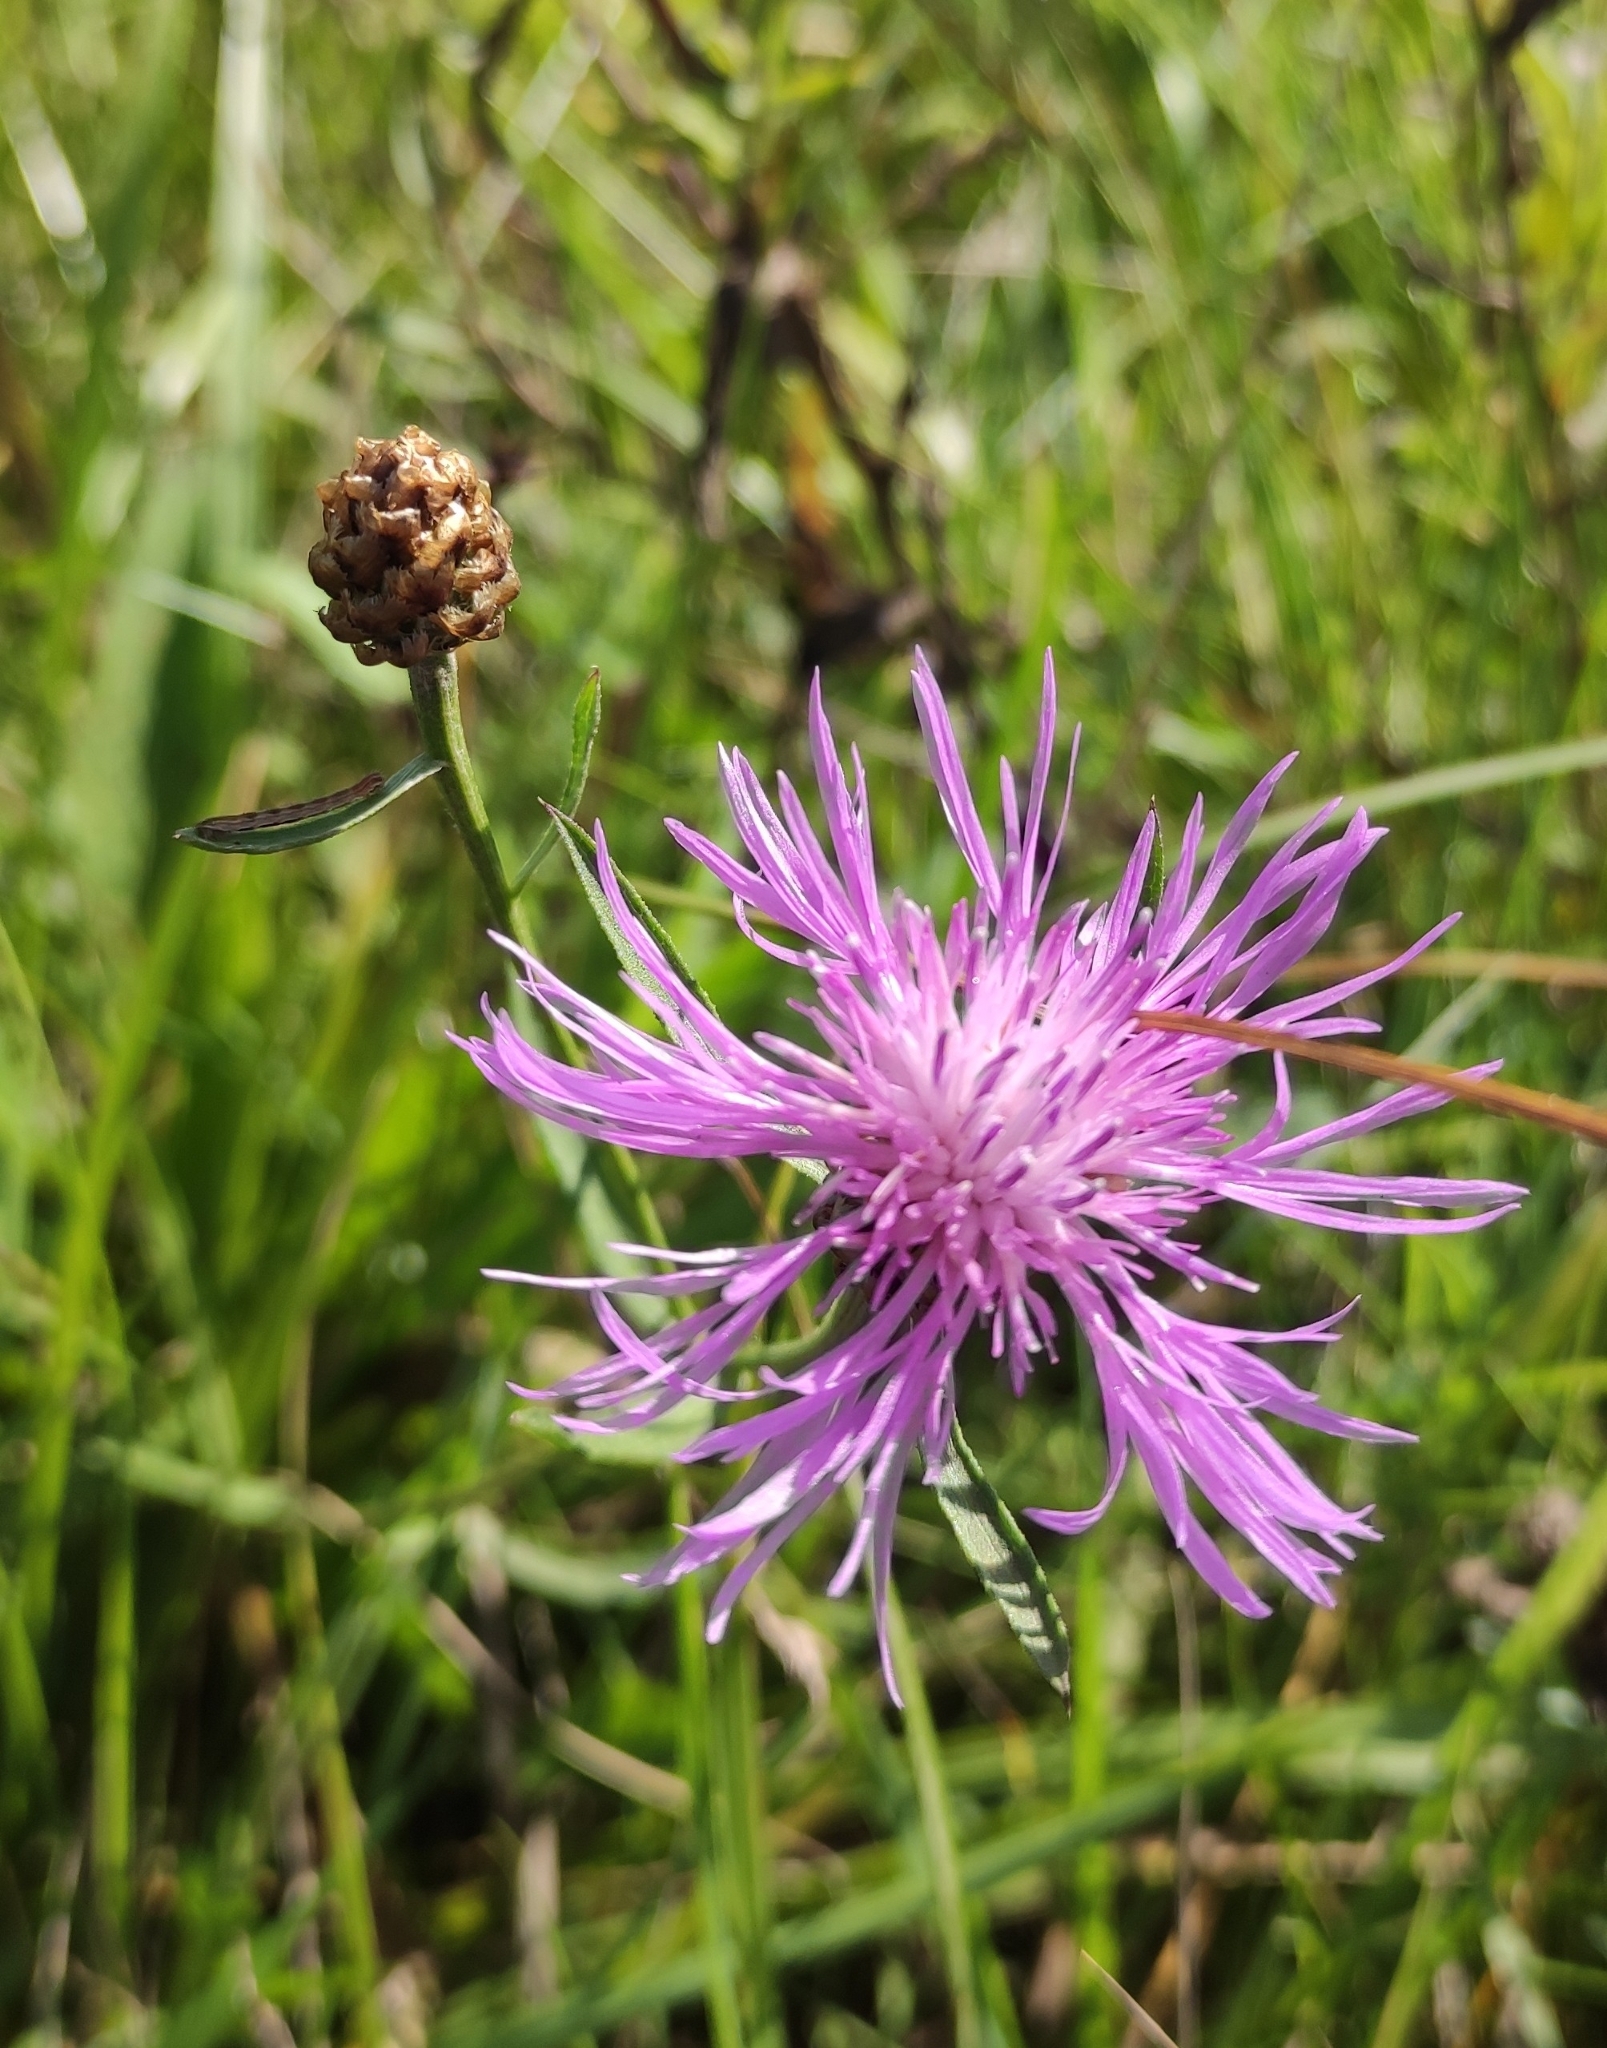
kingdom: Plantae
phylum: Tracheophyta
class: Magnoliopsida
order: Asterales
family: Asteraceae
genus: Centaurea
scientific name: Centaurea jacea
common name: Brown knapweed
